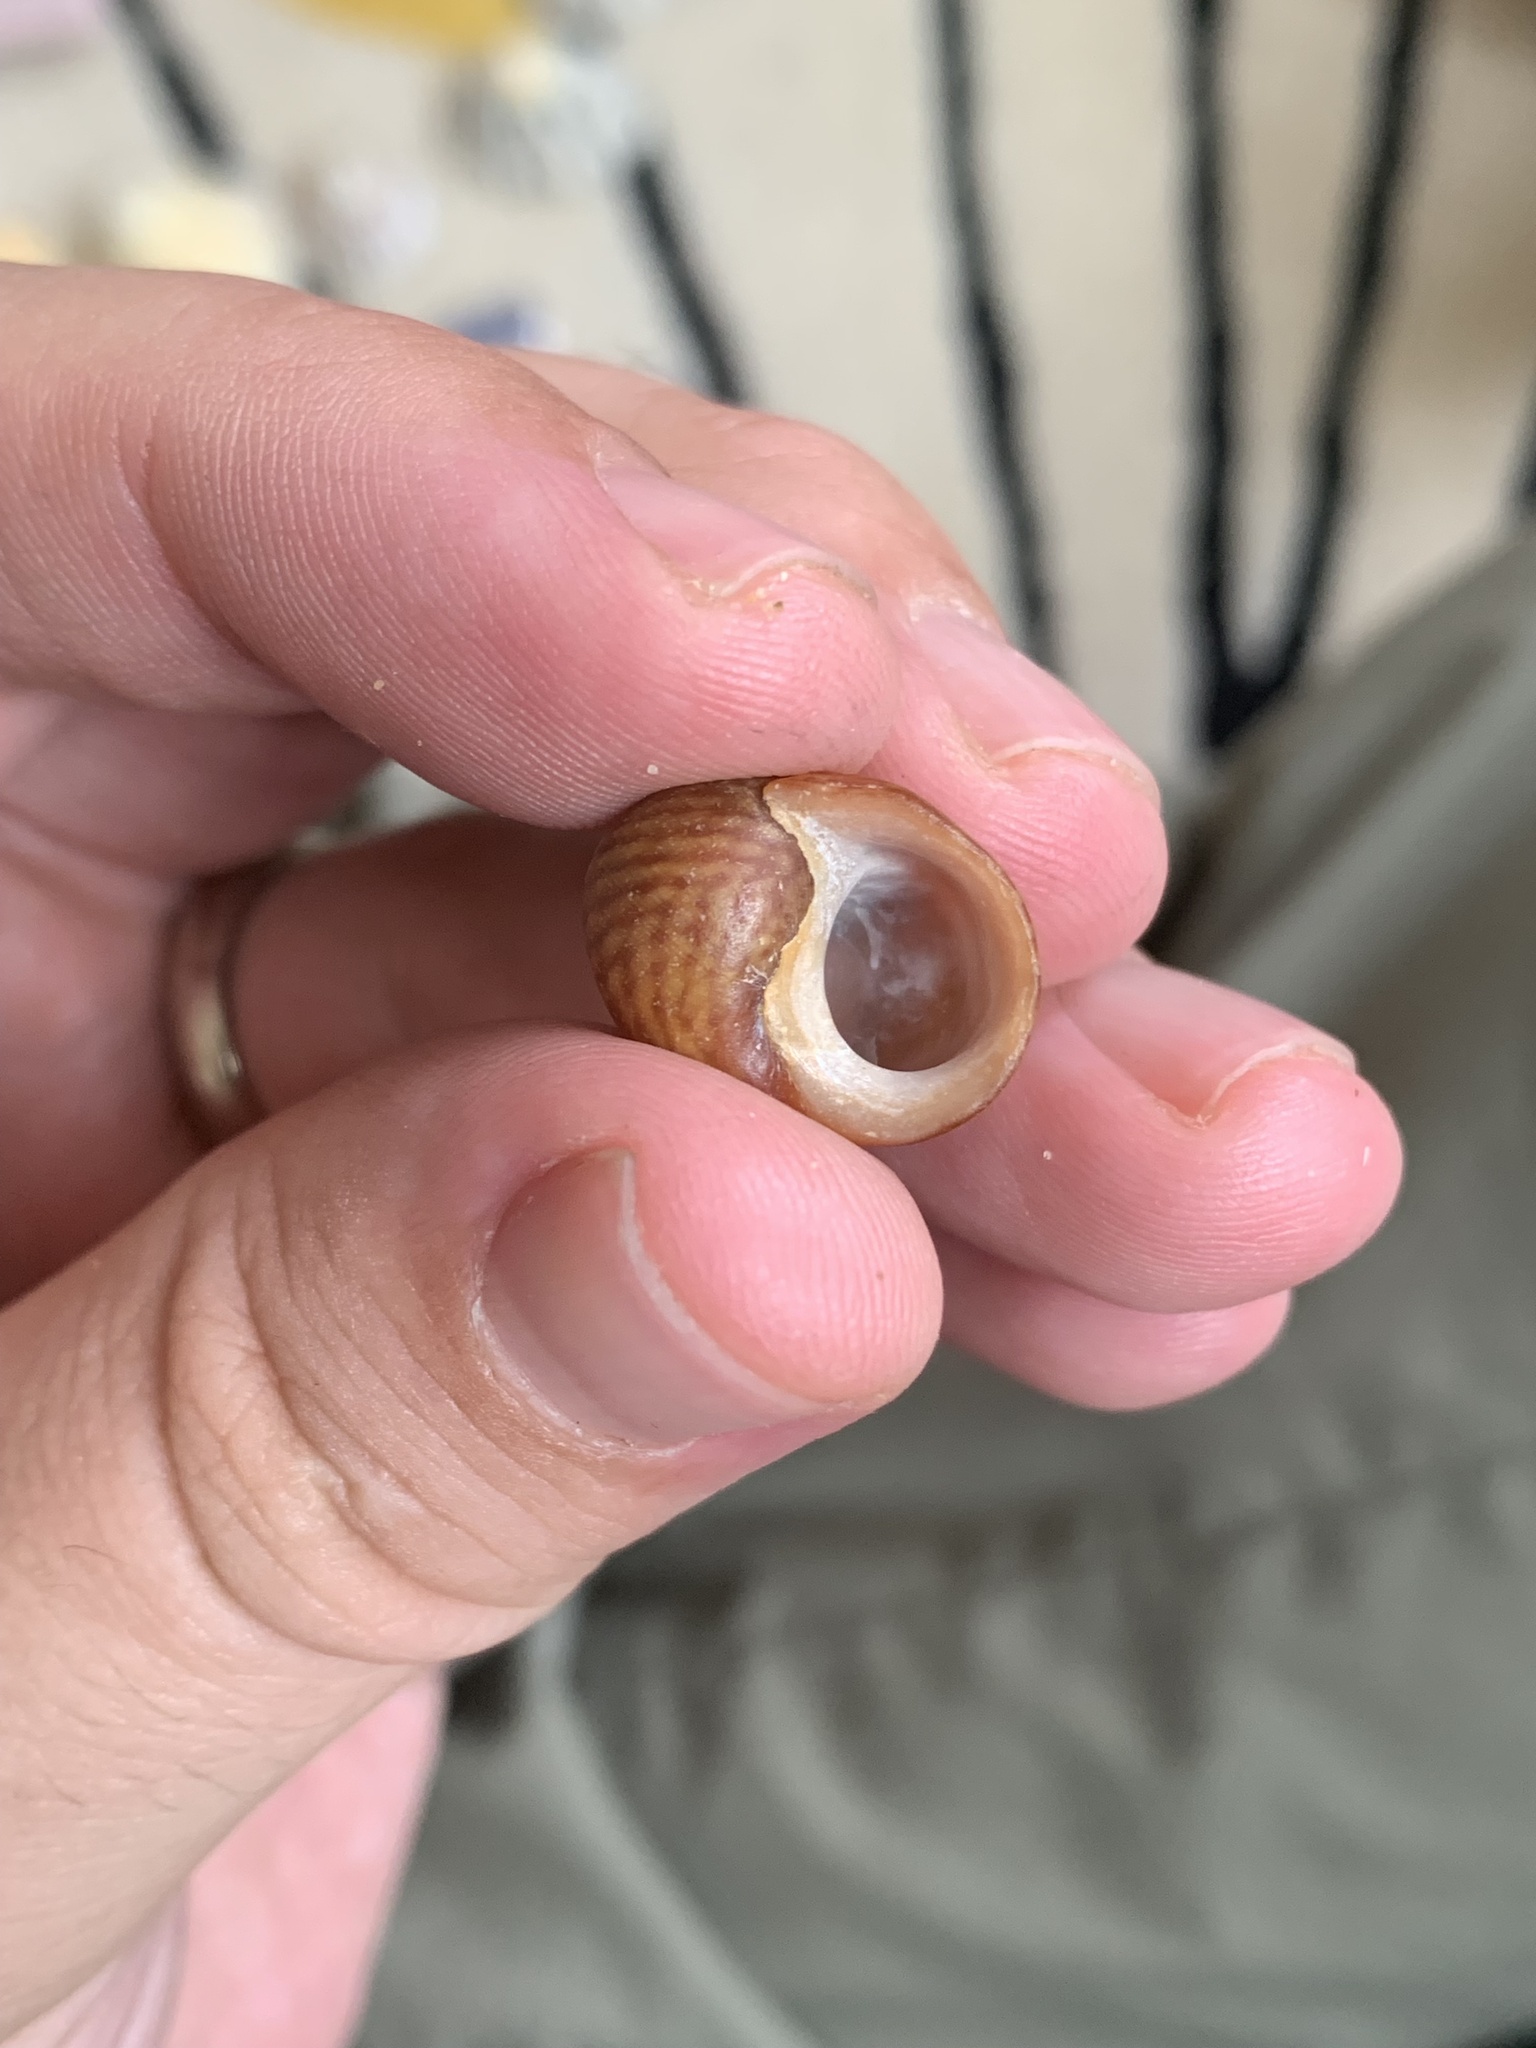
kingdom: Animalia
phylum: Mollusca
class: Gastropoda
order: Littorinimorpha
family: Littorinidae
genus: Littorina
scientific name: Littorina
